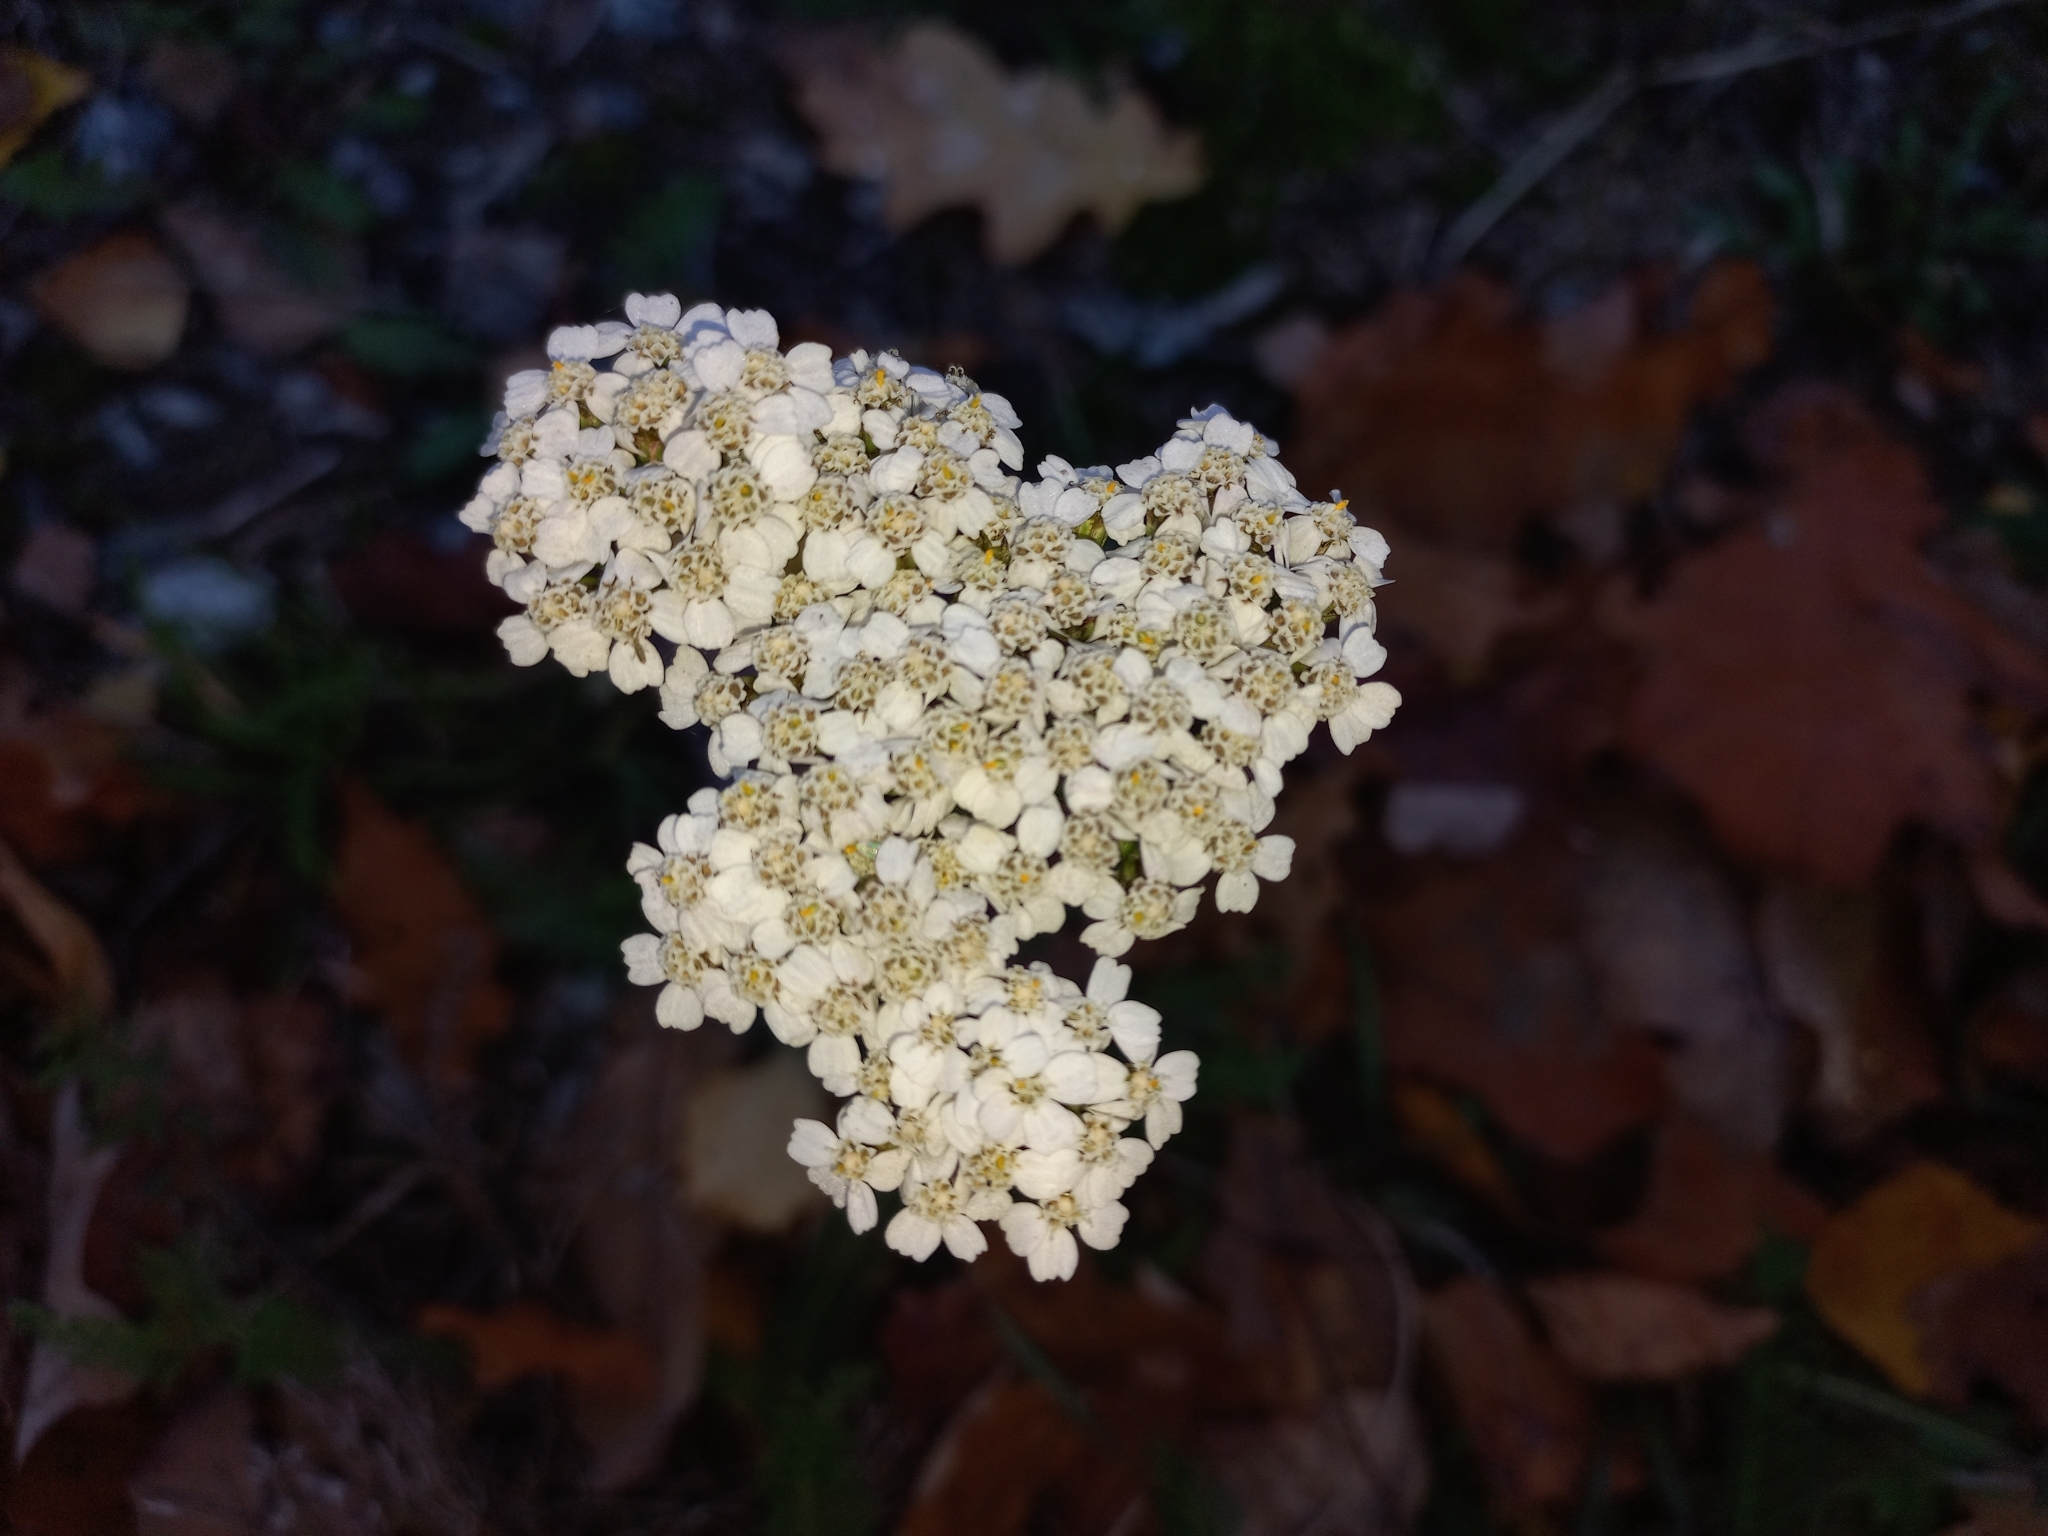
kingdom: Plantae
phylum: Tracheophyta
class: Magnoliopsida
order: Asterales
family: Asteraceae
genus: Achillea
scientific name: Achillea millefolium
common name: Yarrow
